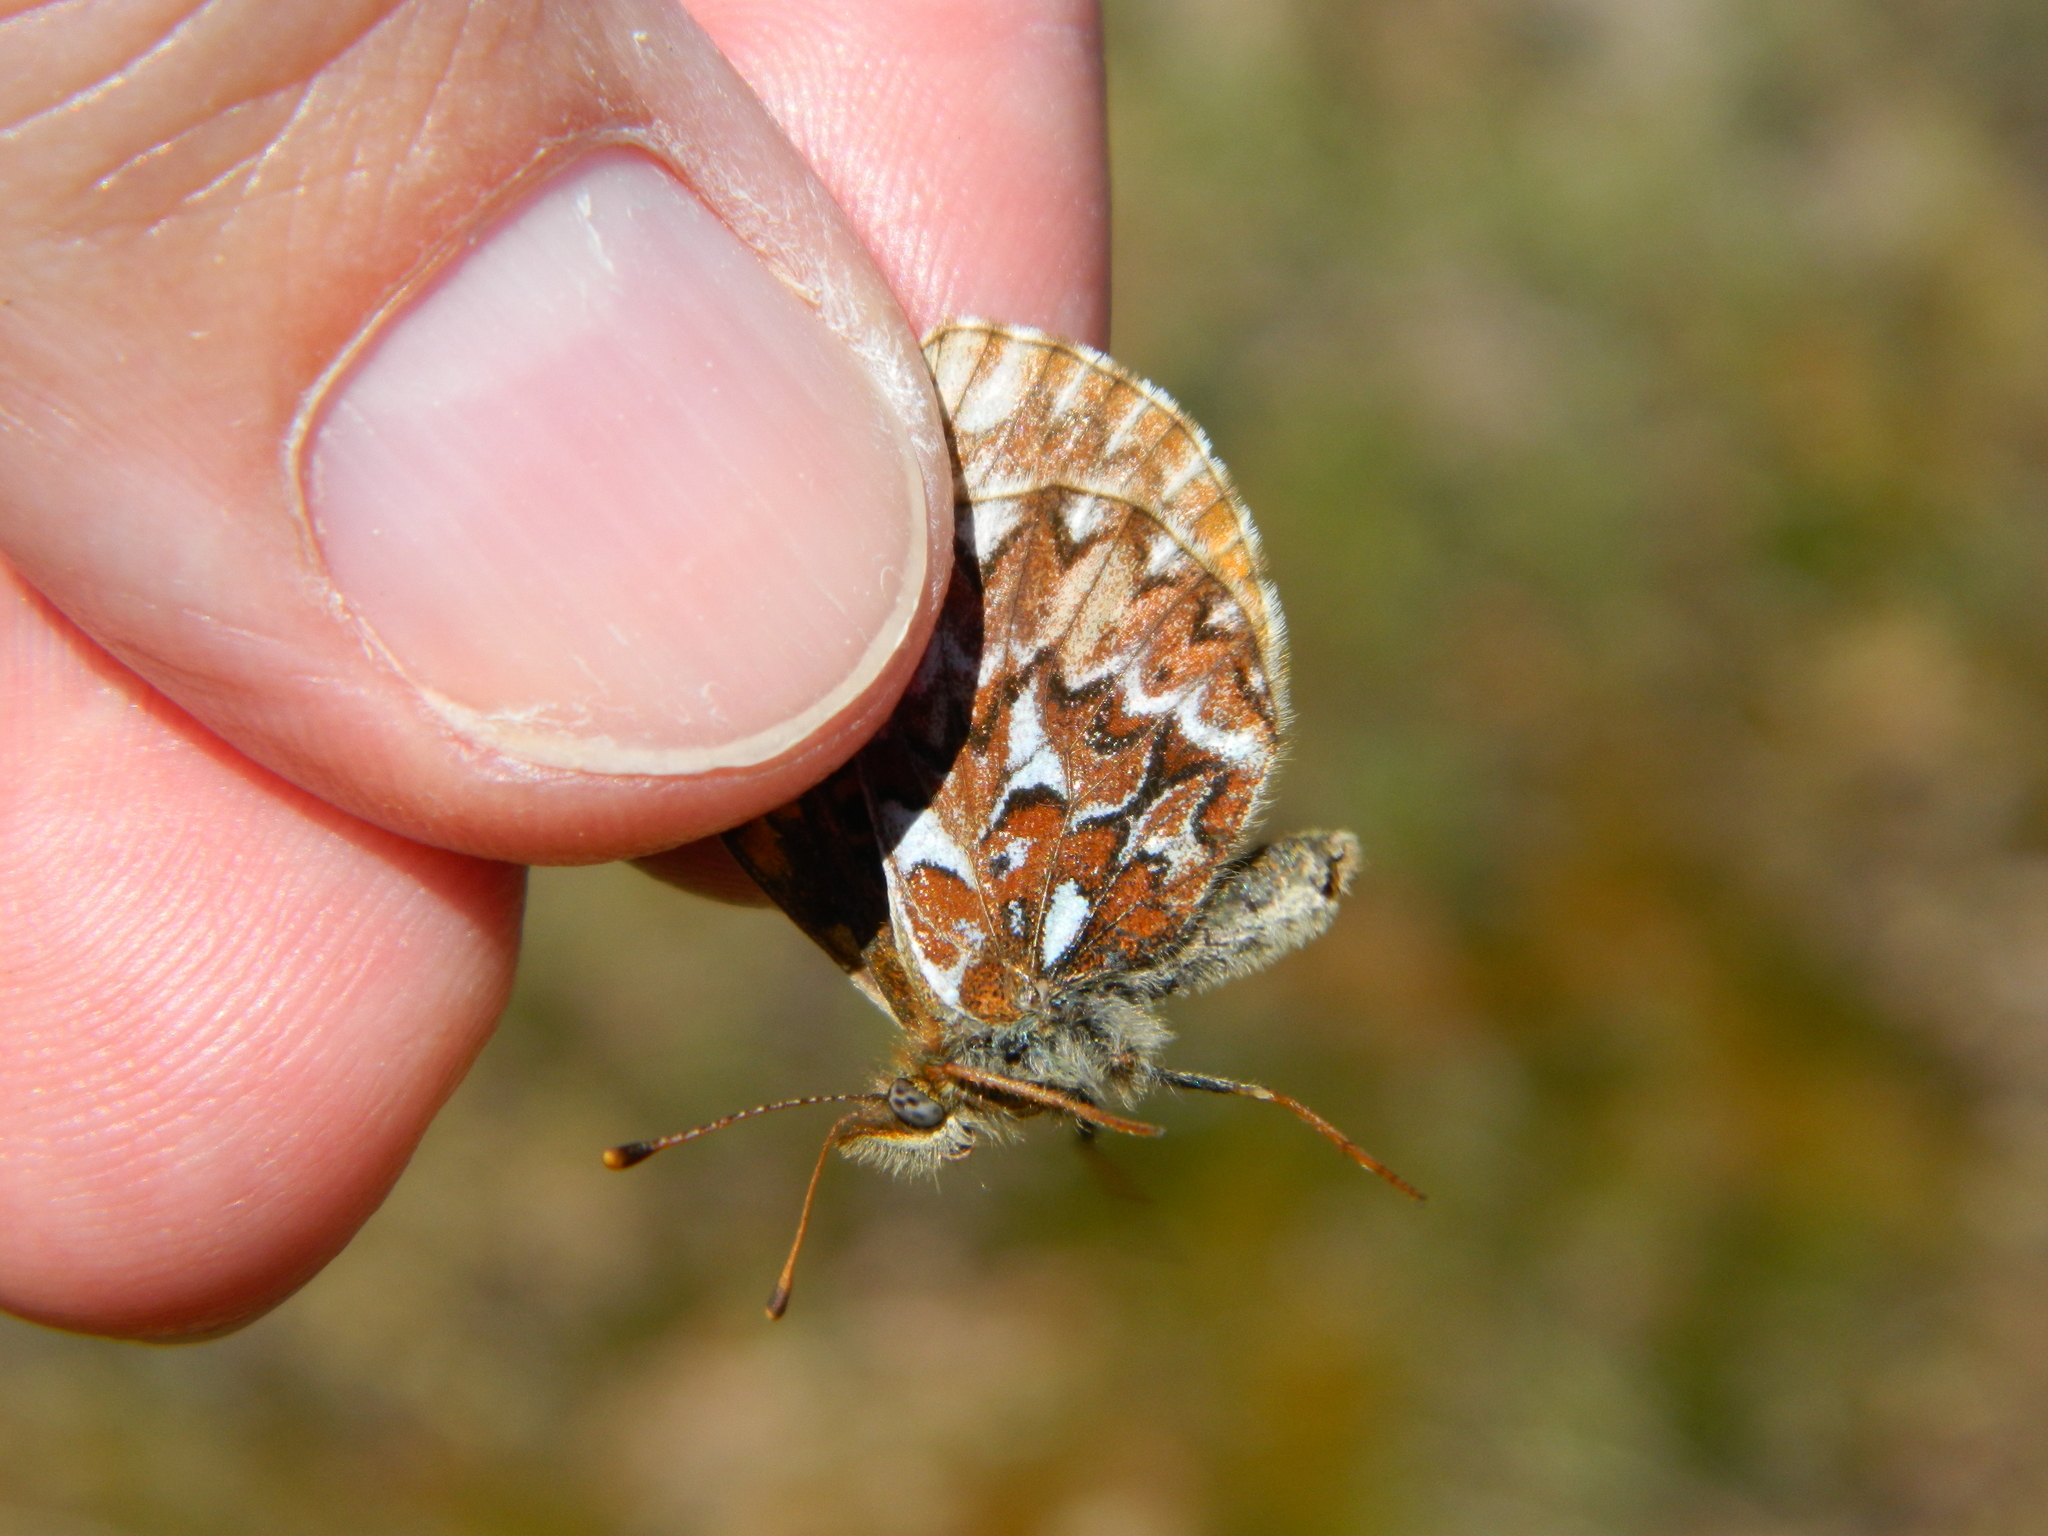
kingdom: Animalia
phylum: Arthropoda
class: Insecta
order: Lepidoptera
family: Nymphalidae
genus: Boloria
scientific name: Boloria freija
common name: Freija fritillary
